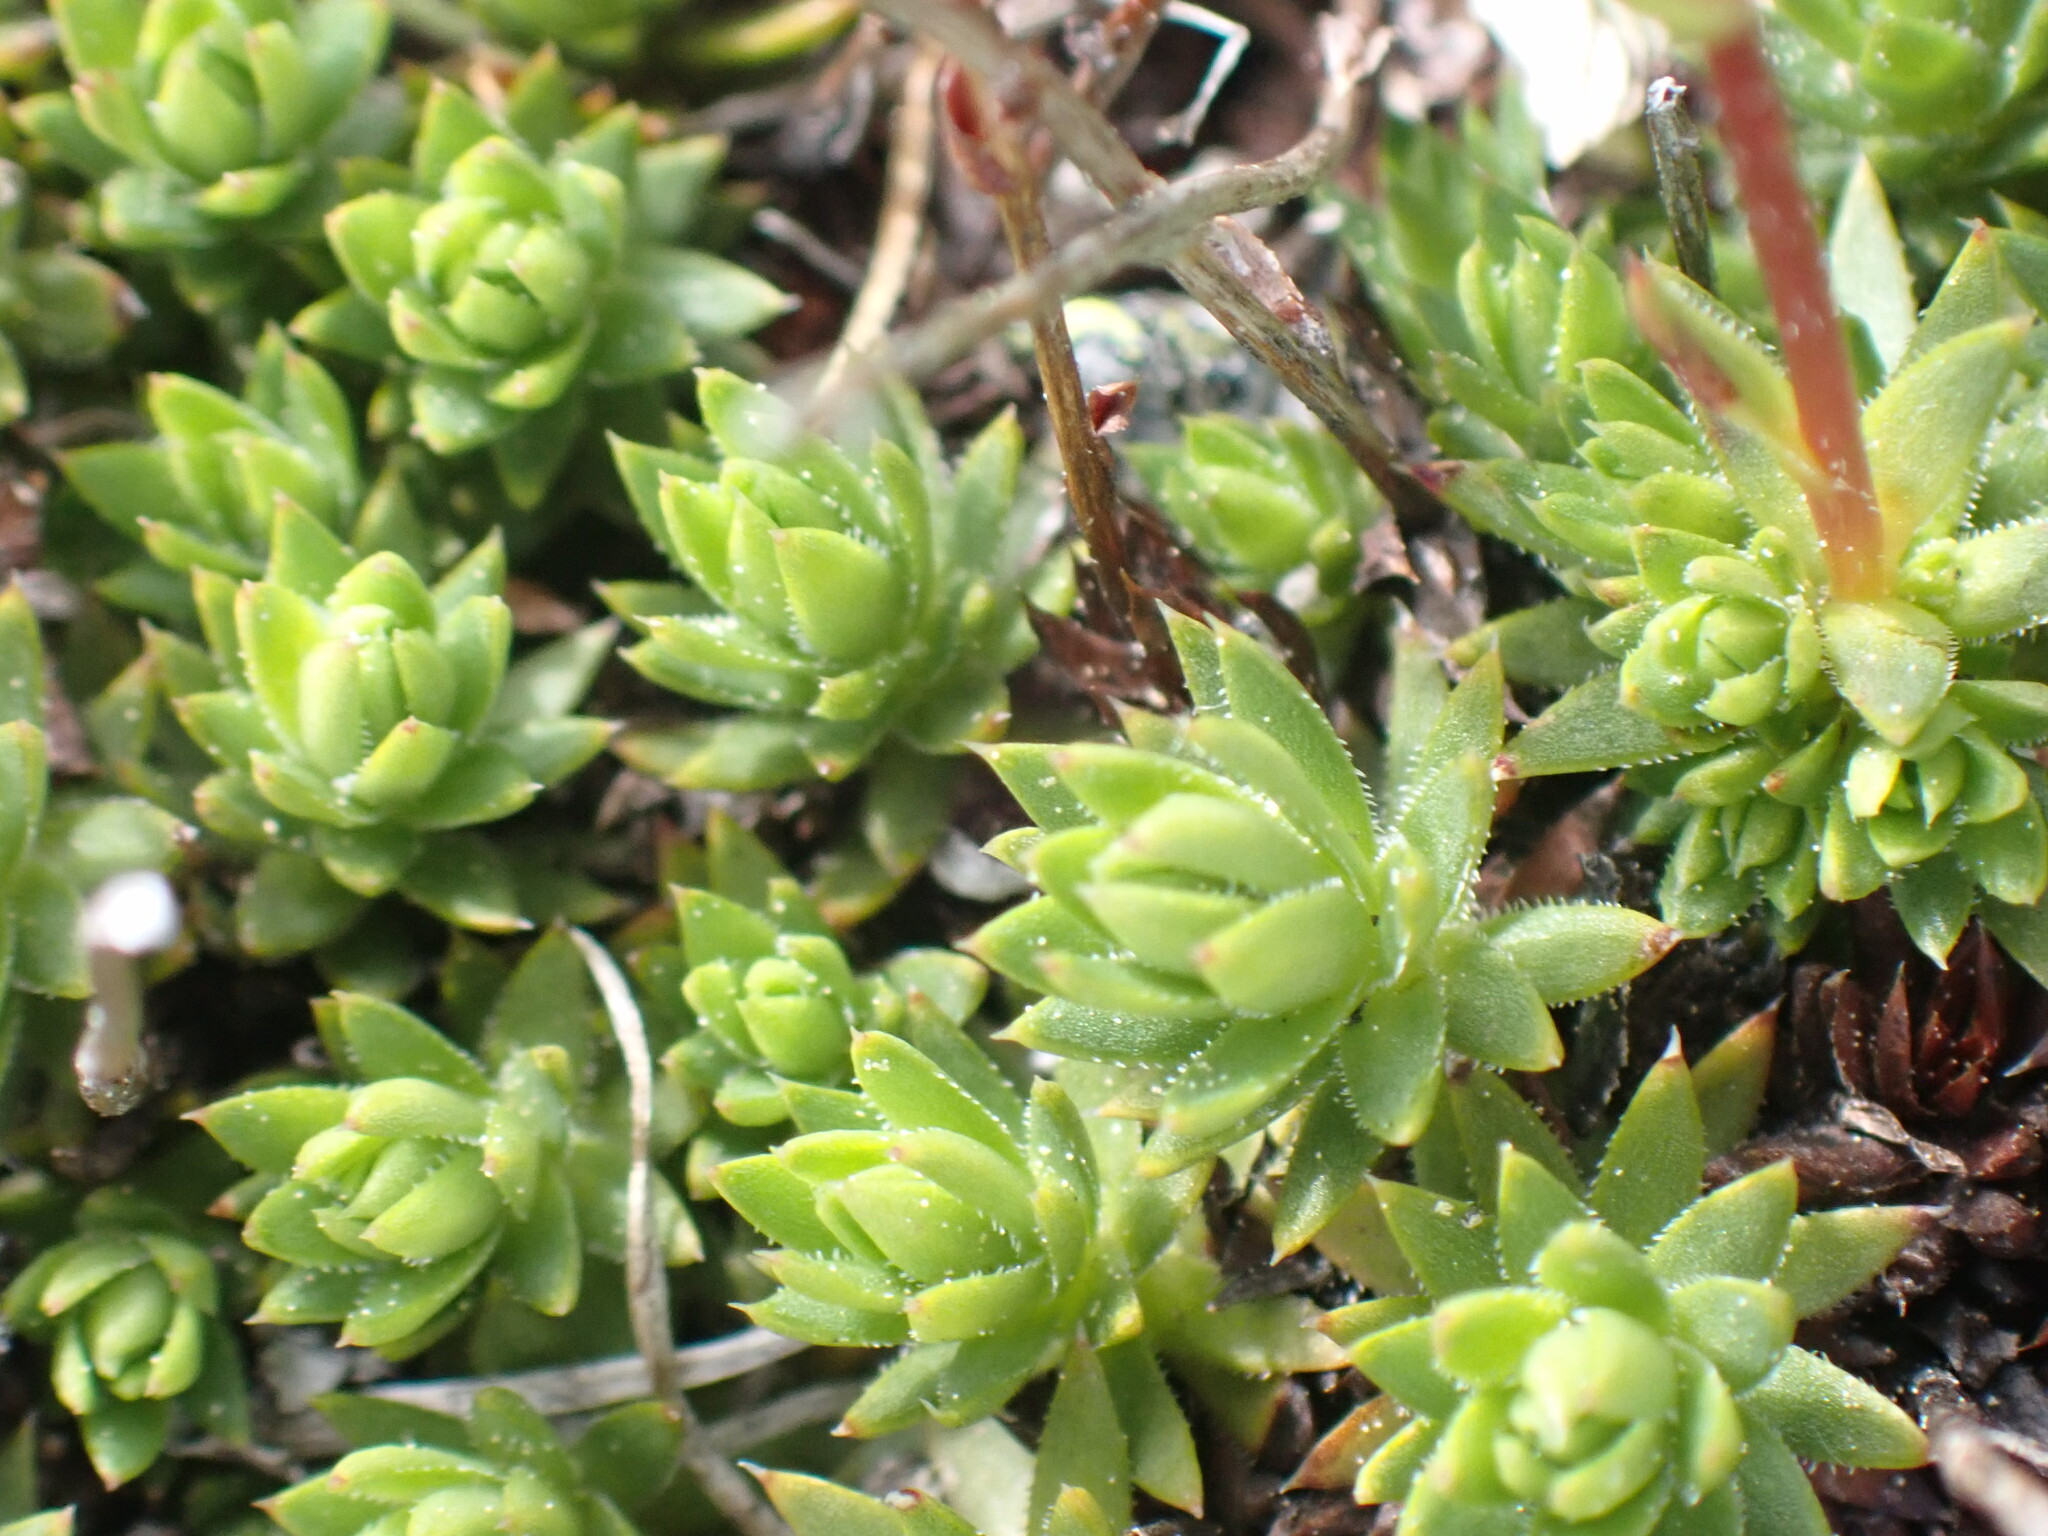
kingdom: Plantae
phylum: Tracheophyta
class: Magnoliopsida
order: Saxifragales
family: Saxifragaceae
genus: Saxifraga
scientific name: Saxifraga bronchialis
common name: Matted saxifrage
